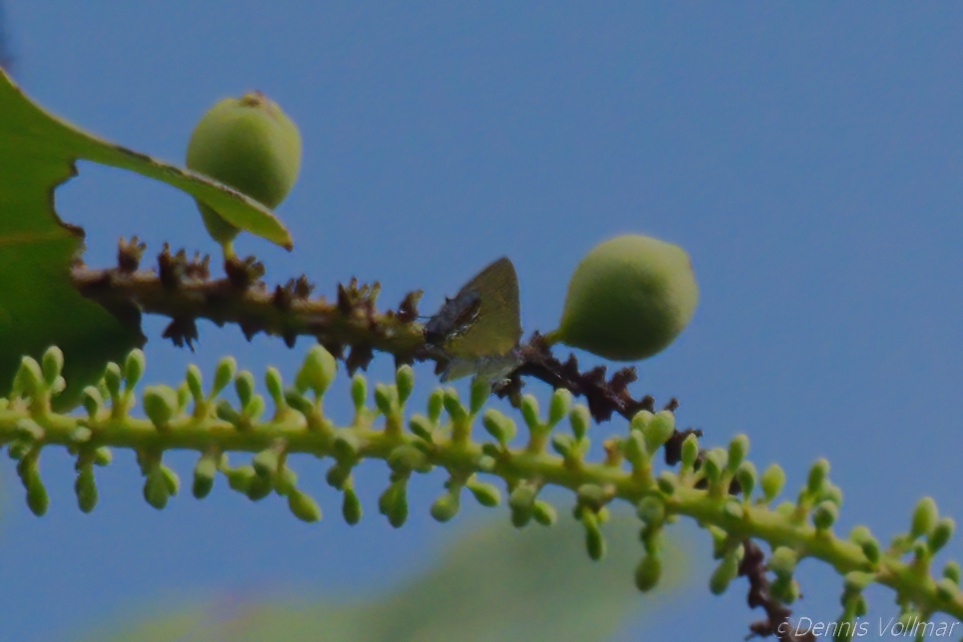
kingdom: Animalia
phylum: Arthropoda
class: Insecta
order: Lepidoptera
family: Lycaenidae
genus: Thecla
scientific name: Thecla maesites
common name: Verde azul hairstreak
